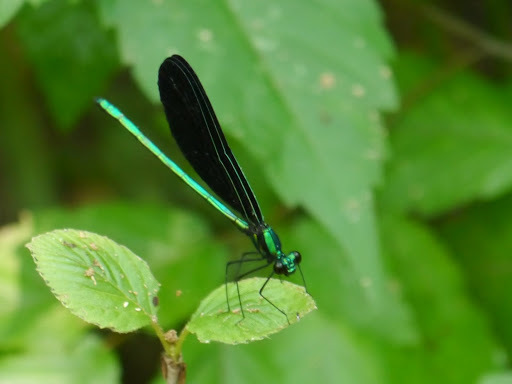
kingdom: Animalia
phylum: Arthropoda
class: Insecta
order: Odonata
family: Calopterygidae
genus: Calopteryx
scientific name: Calopteryx maculata
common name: Ebony jewelwing
